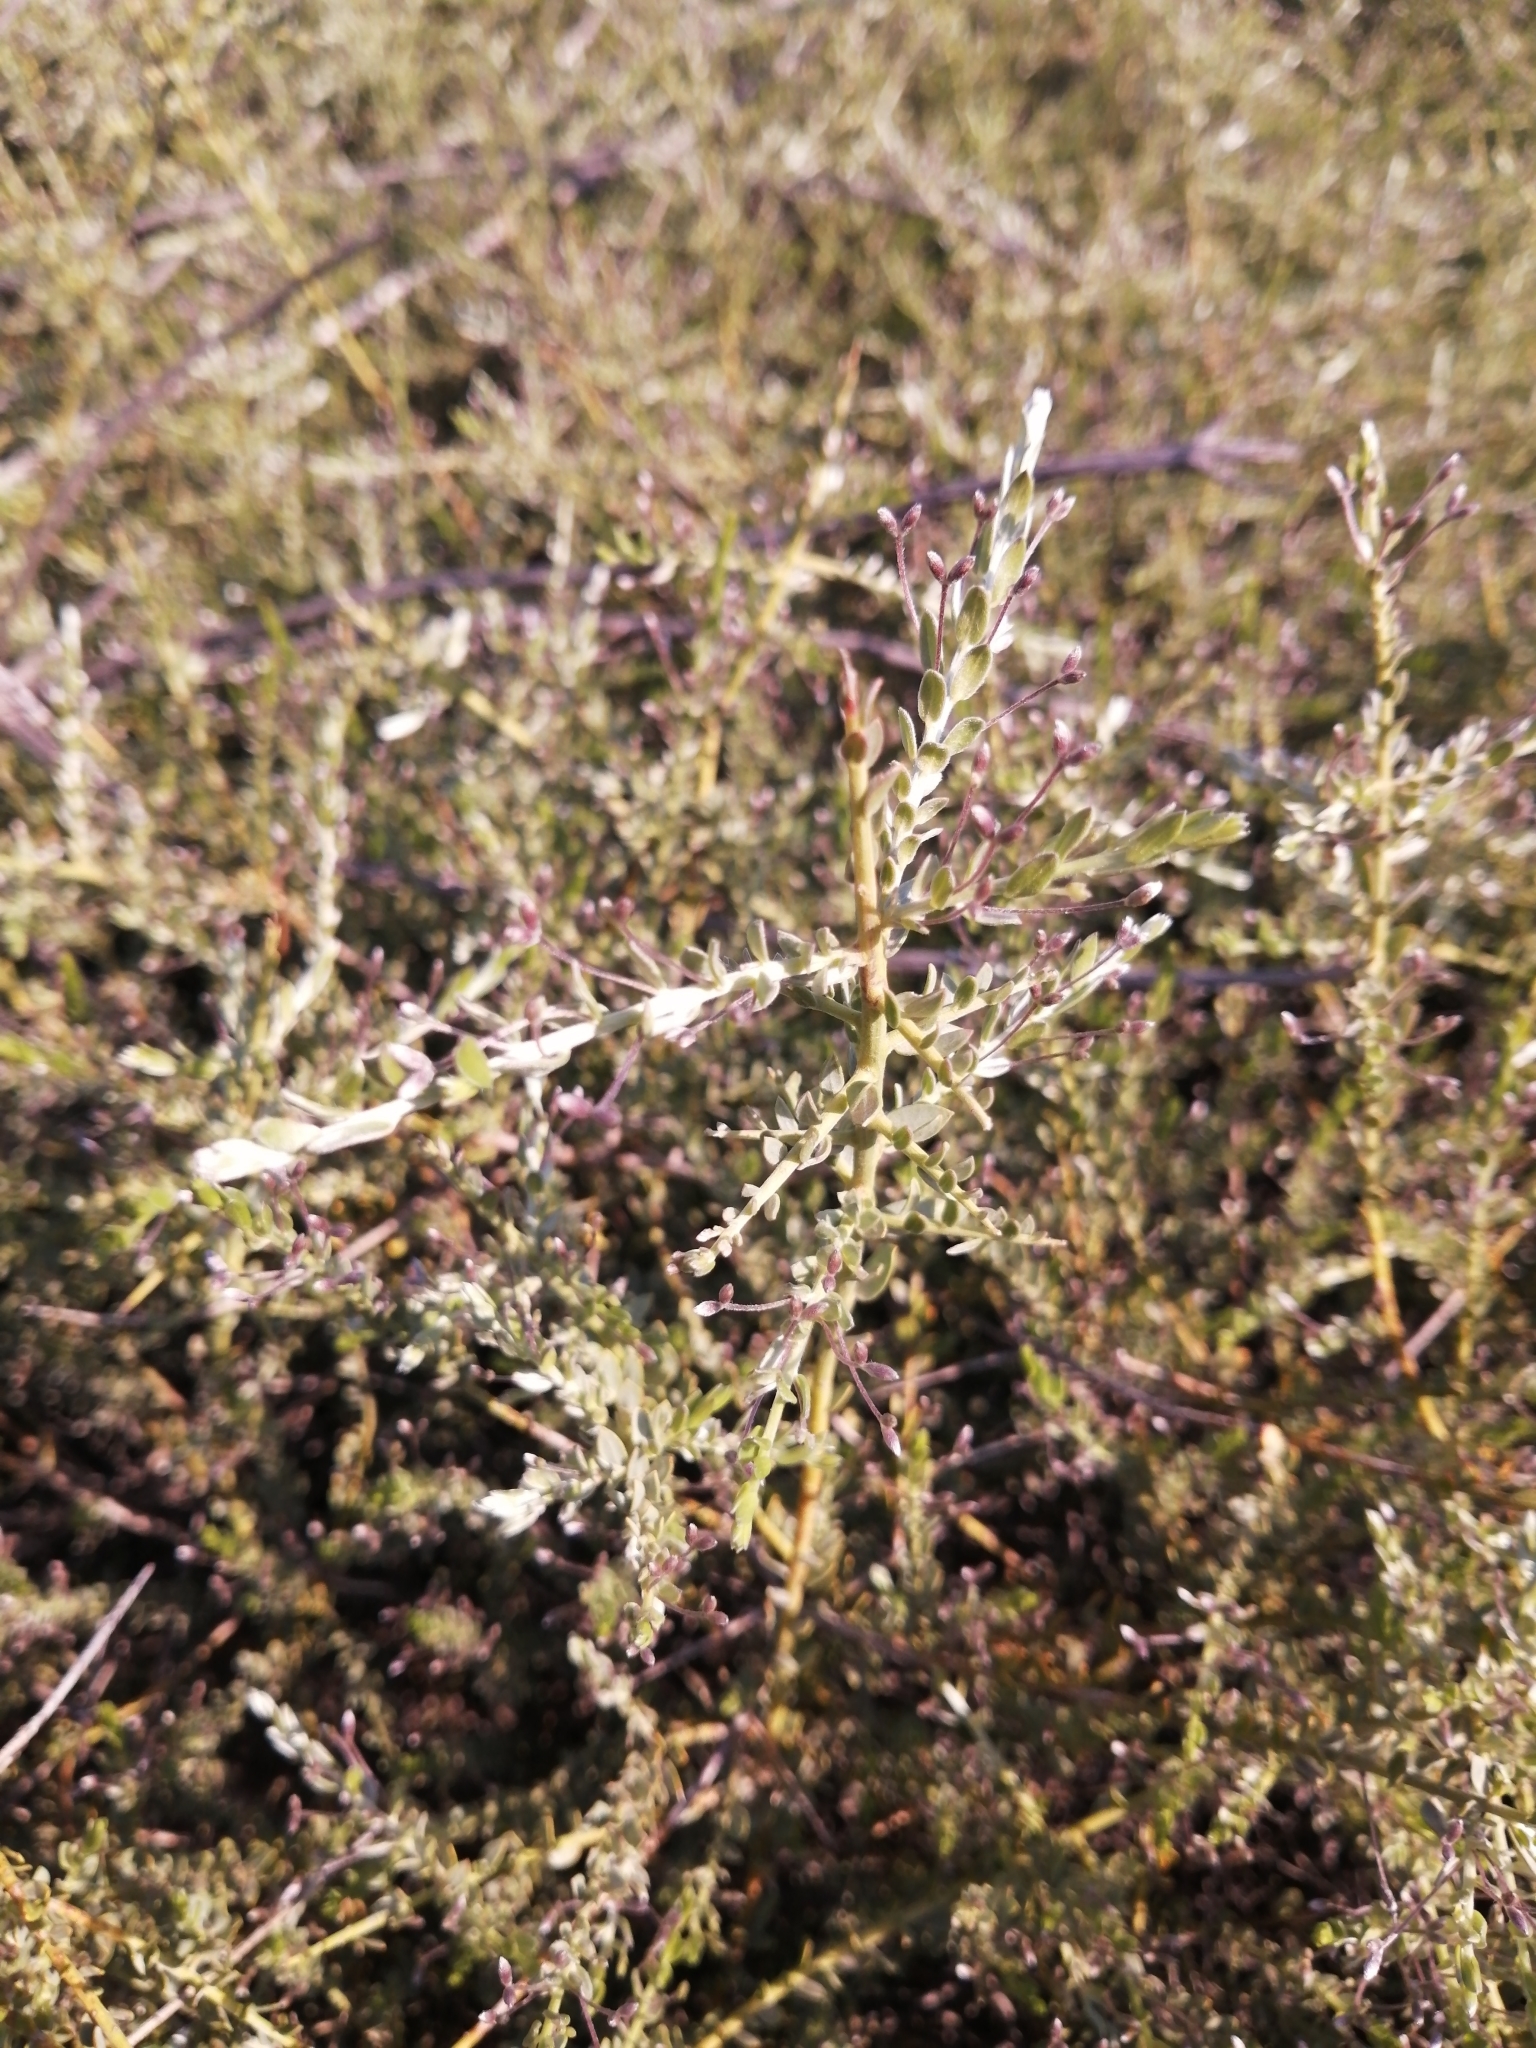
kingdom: Plantae
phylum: Tracheophyta
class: Magnoliopsida
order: Fabales
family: Fabaceae
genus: Amphithalea
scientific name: Amphithalea spinosa
